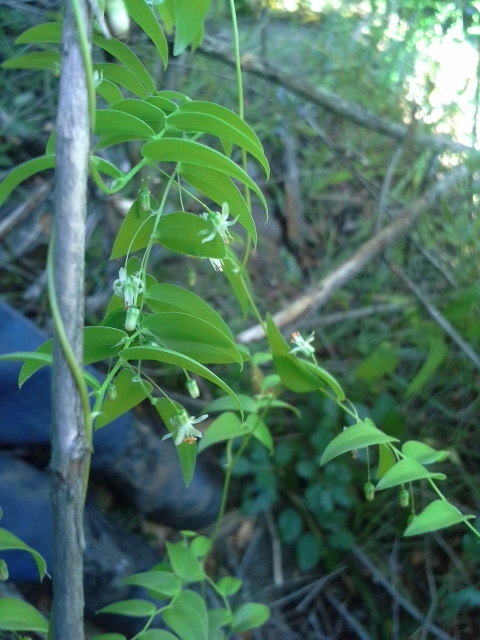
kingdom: Plantae
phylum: Tracheophyta
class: Liliopsida
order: Asparagales
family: Asparagaceae
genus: Asparagus
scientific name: Asparagus asparagoides
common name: African asparagus fern
